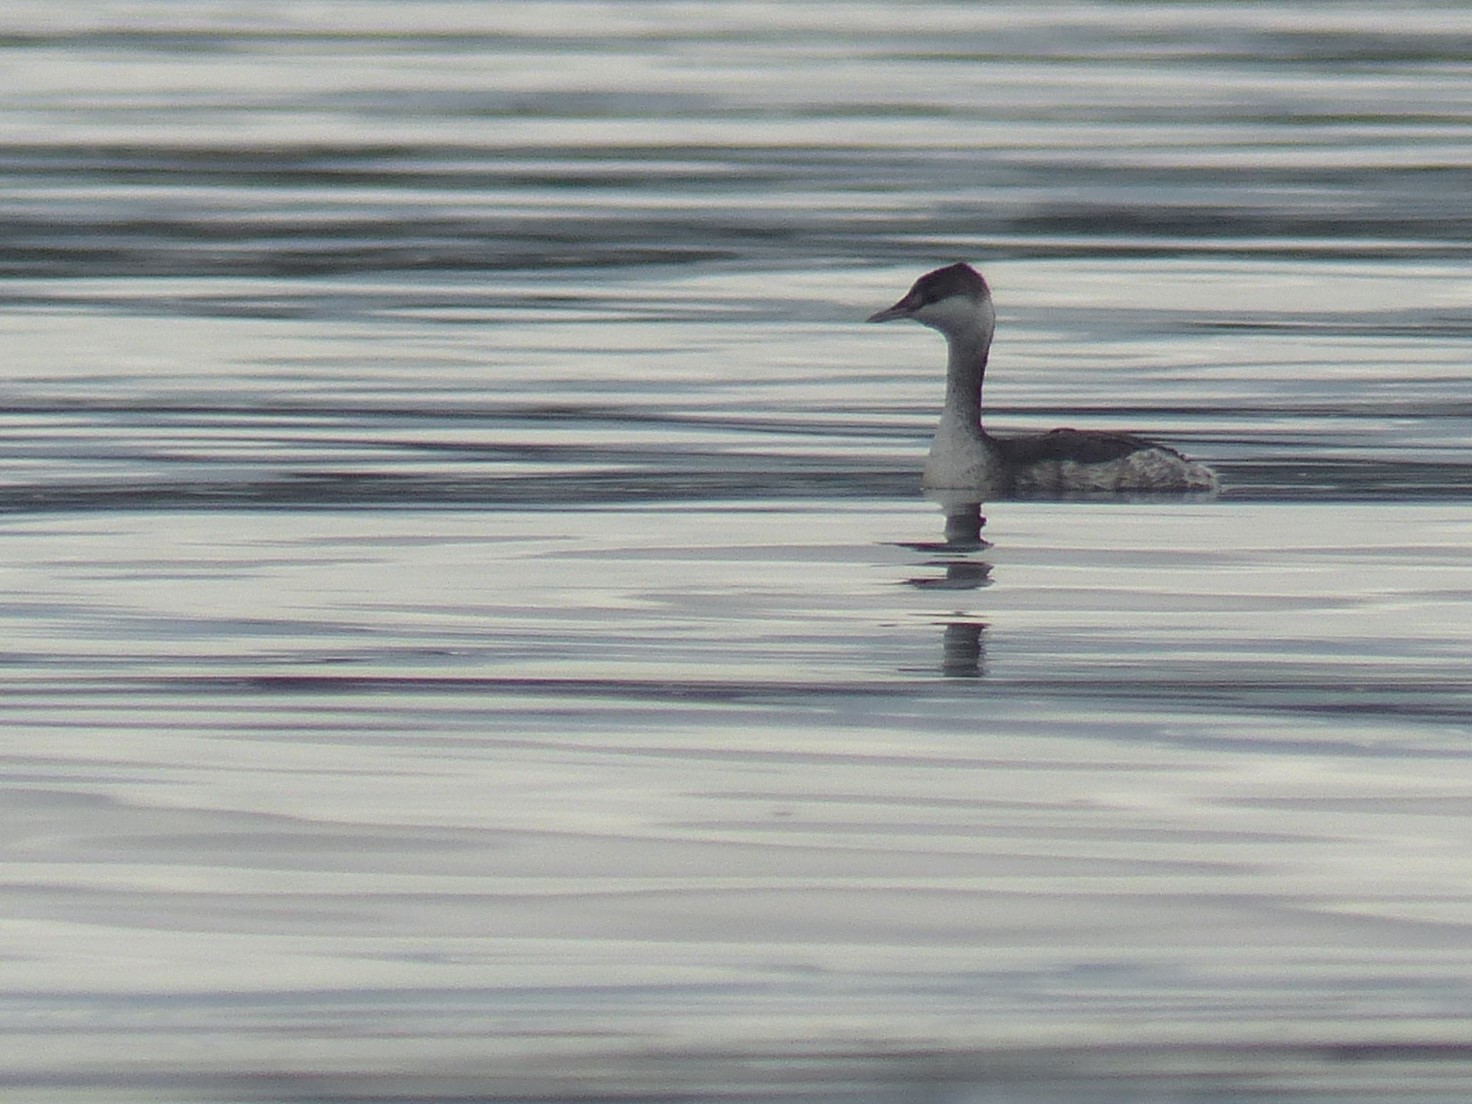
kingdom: Animalia
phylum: Chordata
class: Aves
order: Podicipediformes
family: Podicipedidae
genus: Podiceps
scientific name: Podiceps auritus
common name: Horned grebe
